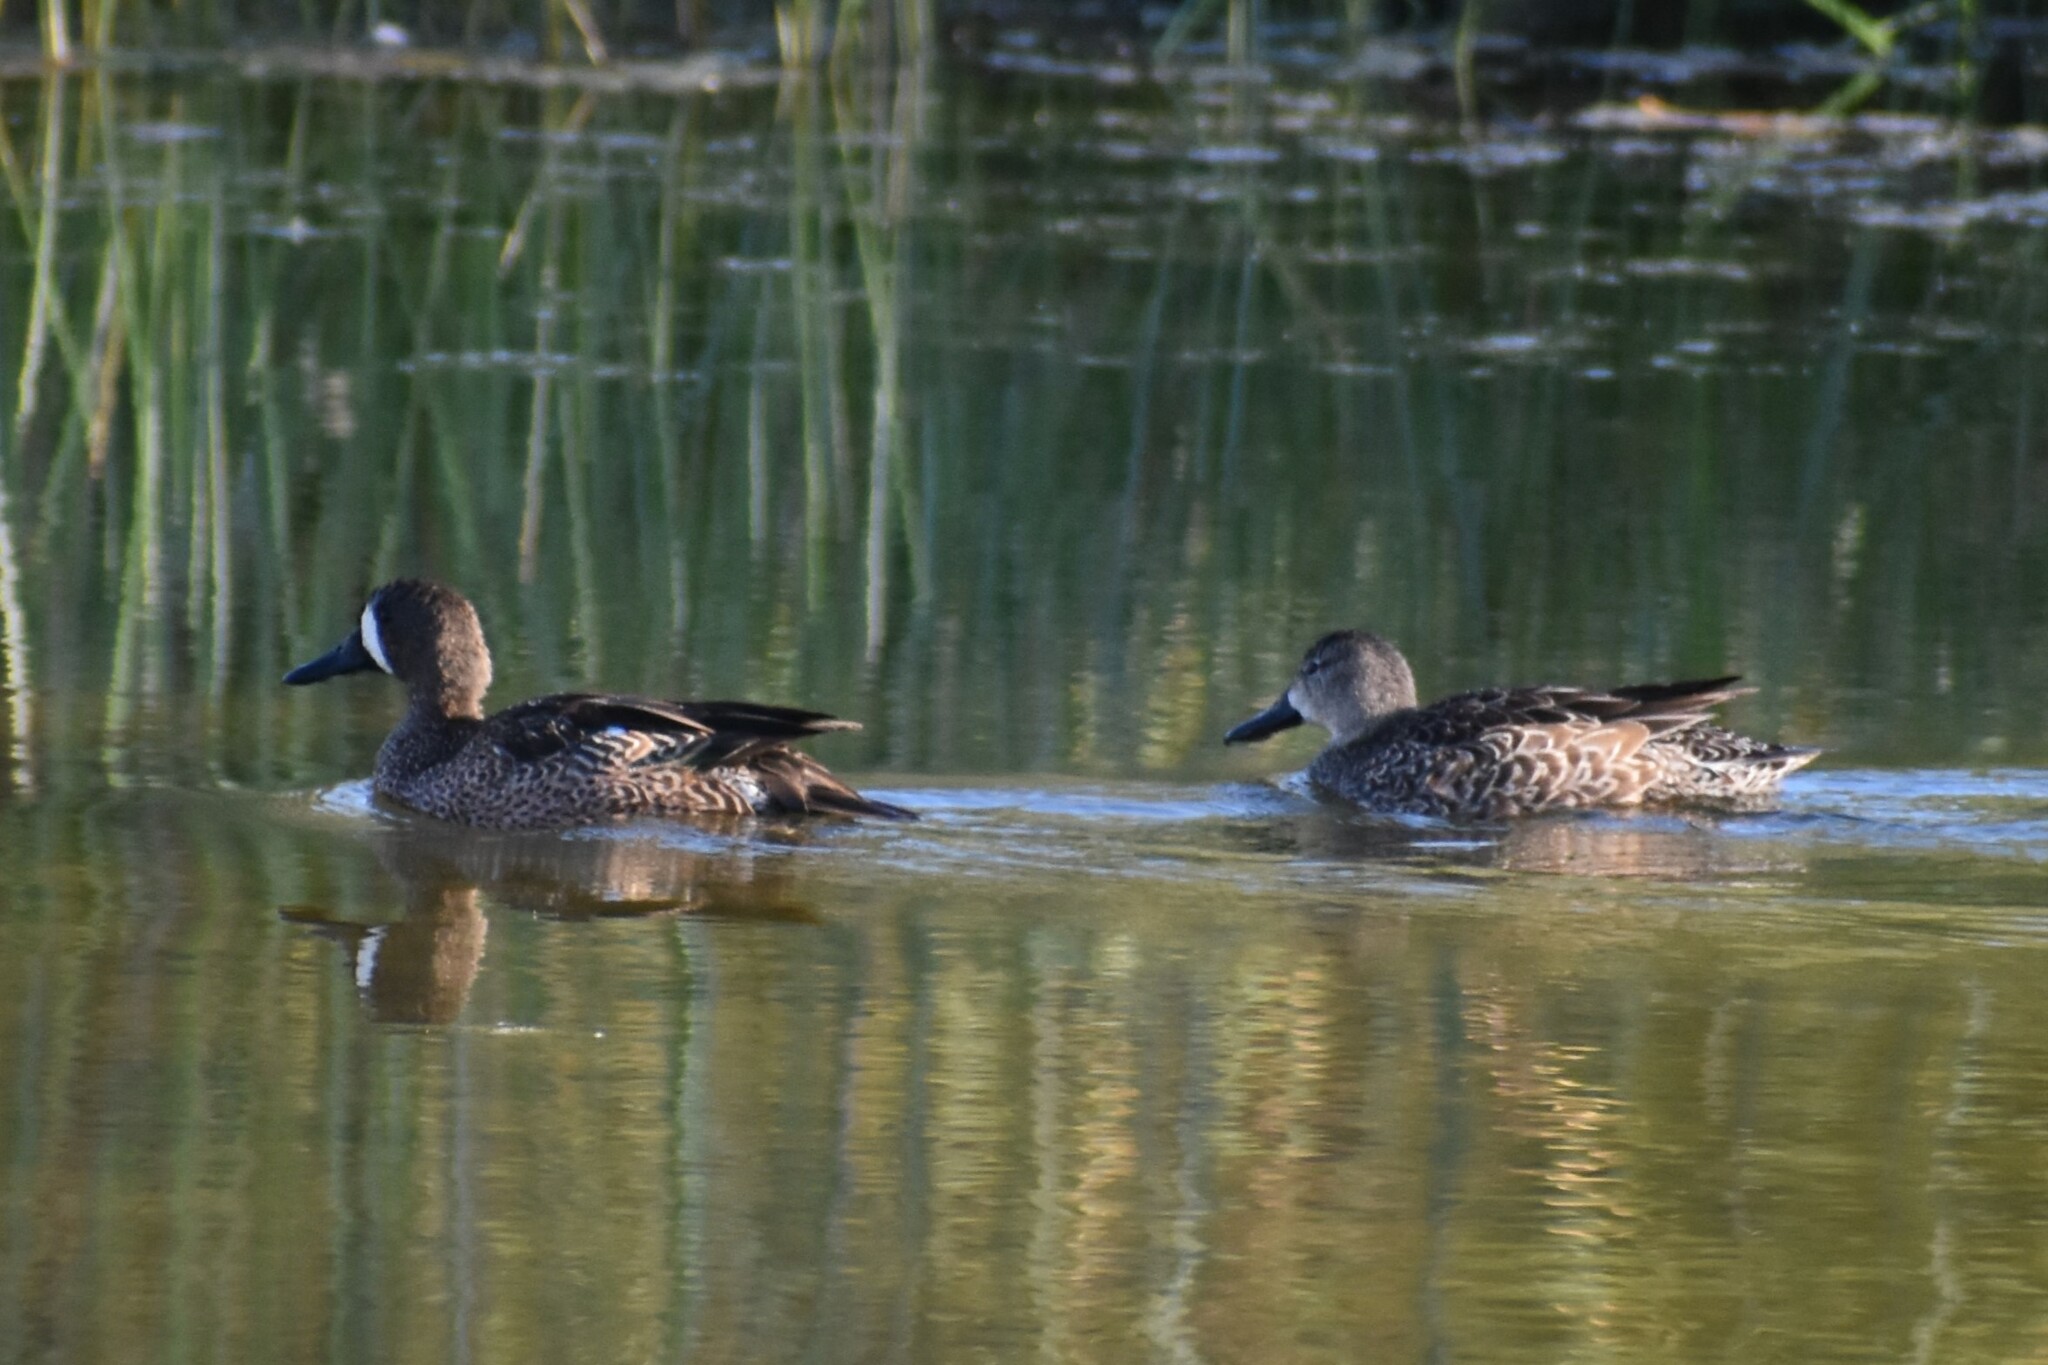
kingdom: Animalia
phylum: Chordata
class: Aves
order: Anseriformes
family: Anatidae
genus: Spatula
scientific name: Spatula discors
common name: Blue-winged teal
